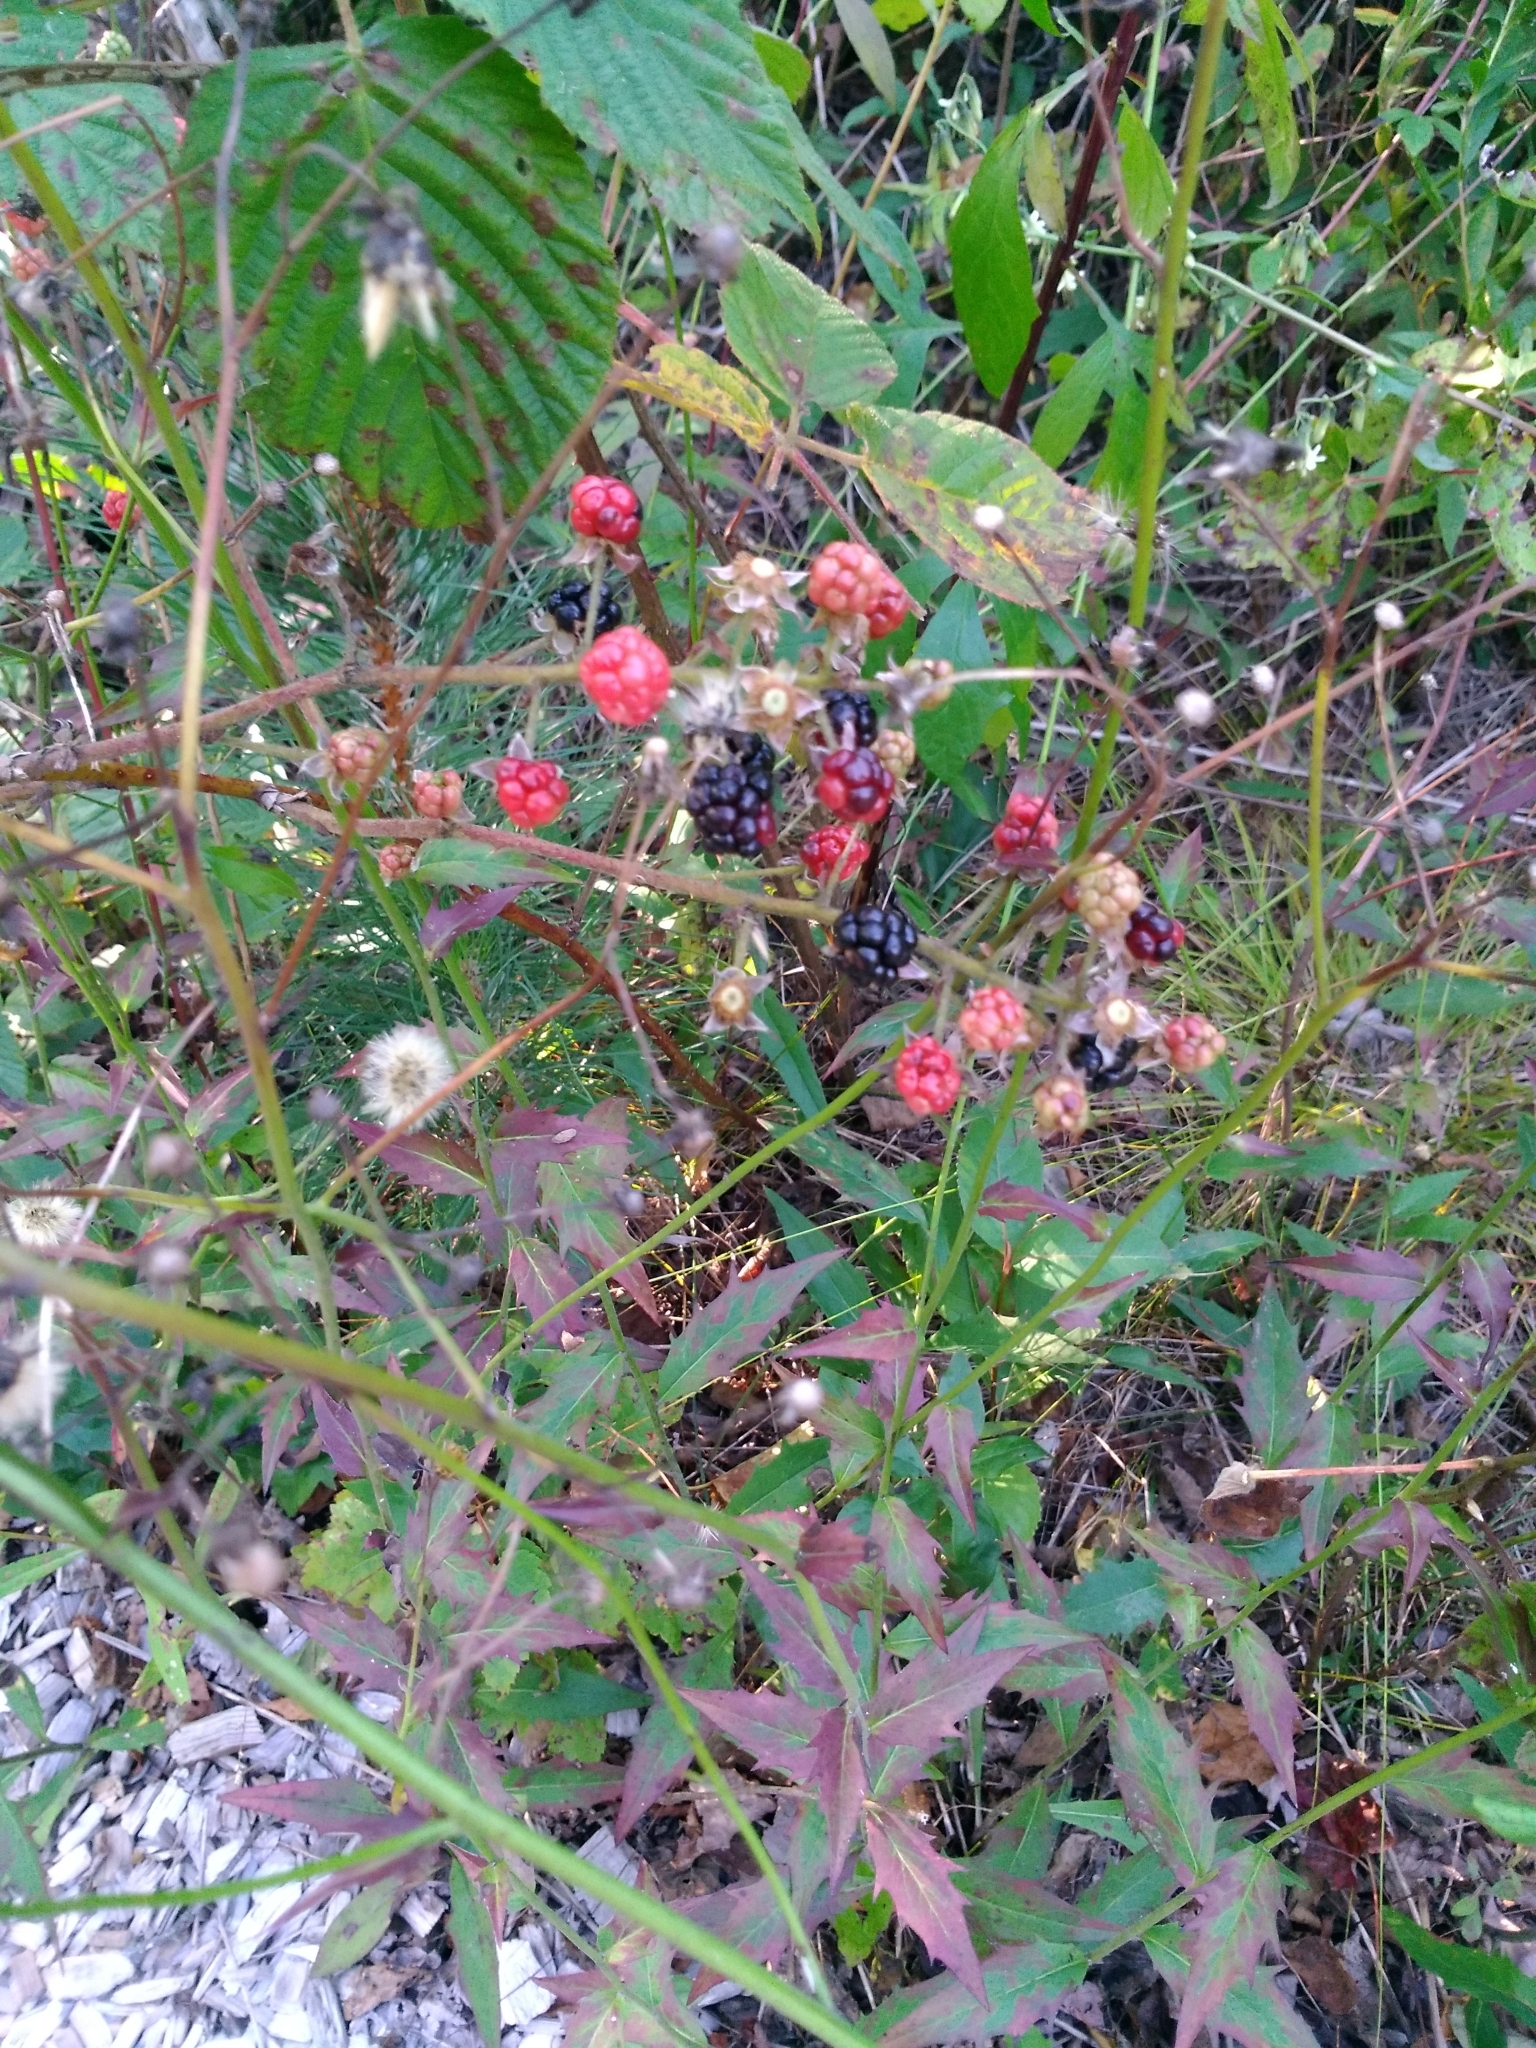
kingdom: Plantae
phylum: Tracheophyta
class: Magnoliopsida
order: Rosales
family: Rosaceae
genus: Rubus
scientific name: Rubus allegheniensis
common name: Allegheny blackberry
